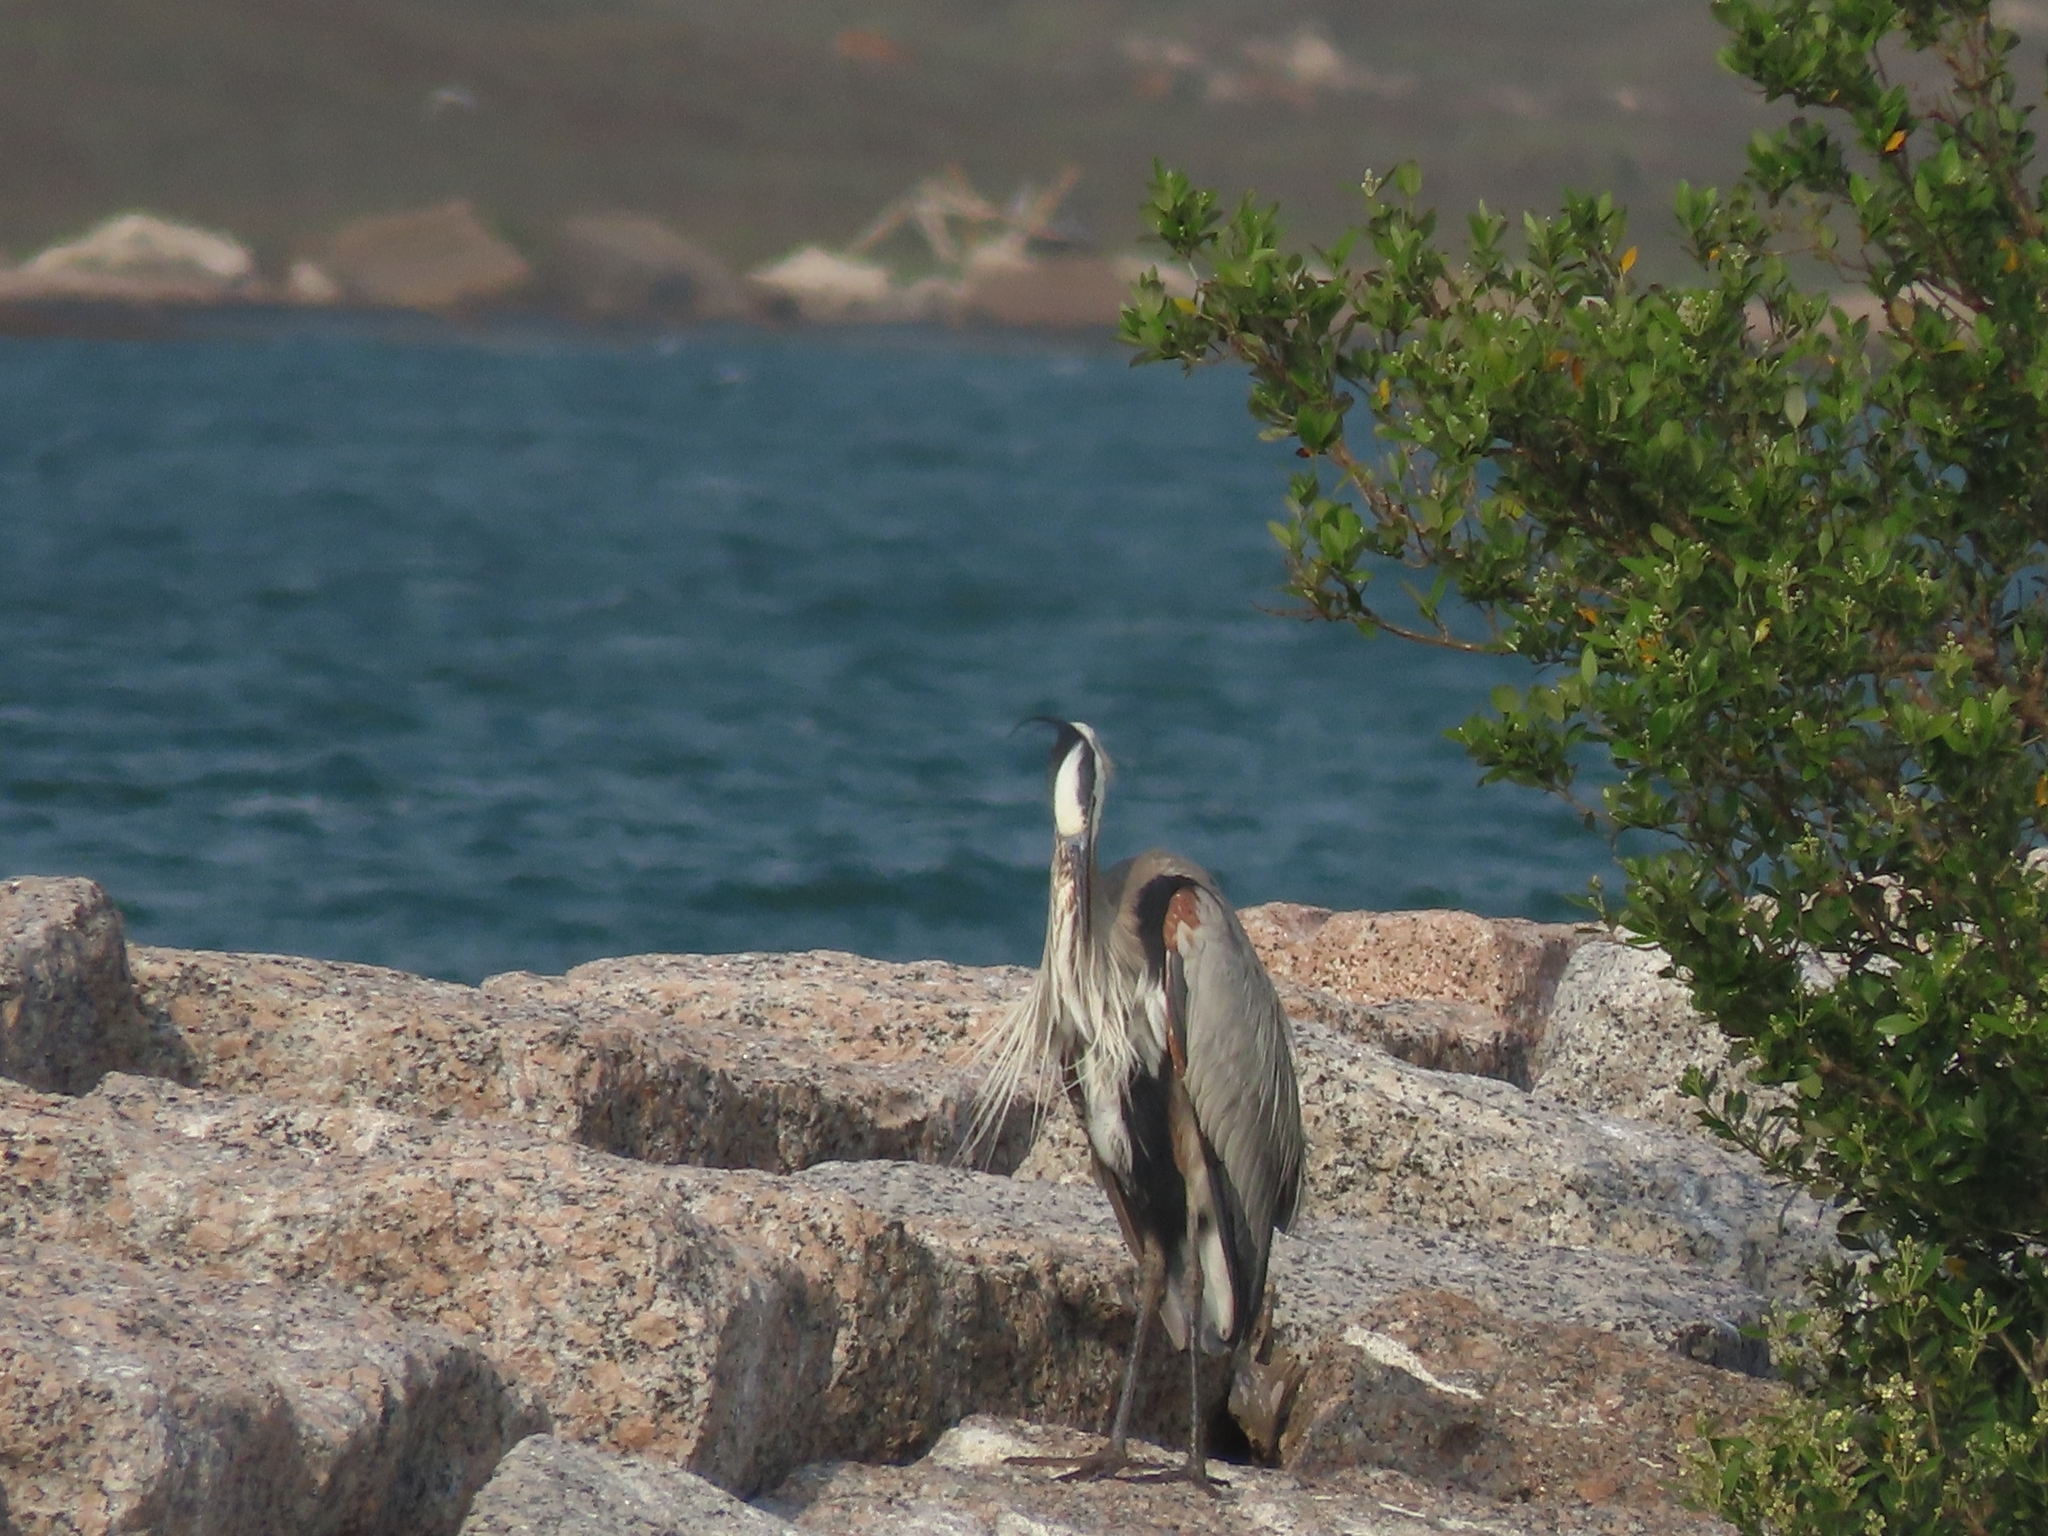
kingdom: Animalia
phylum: Chordata
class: Aves
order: Pelecaniformes
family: Ardeidae
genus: Ardea
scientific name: Ardea herodias
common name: Great blue heron
